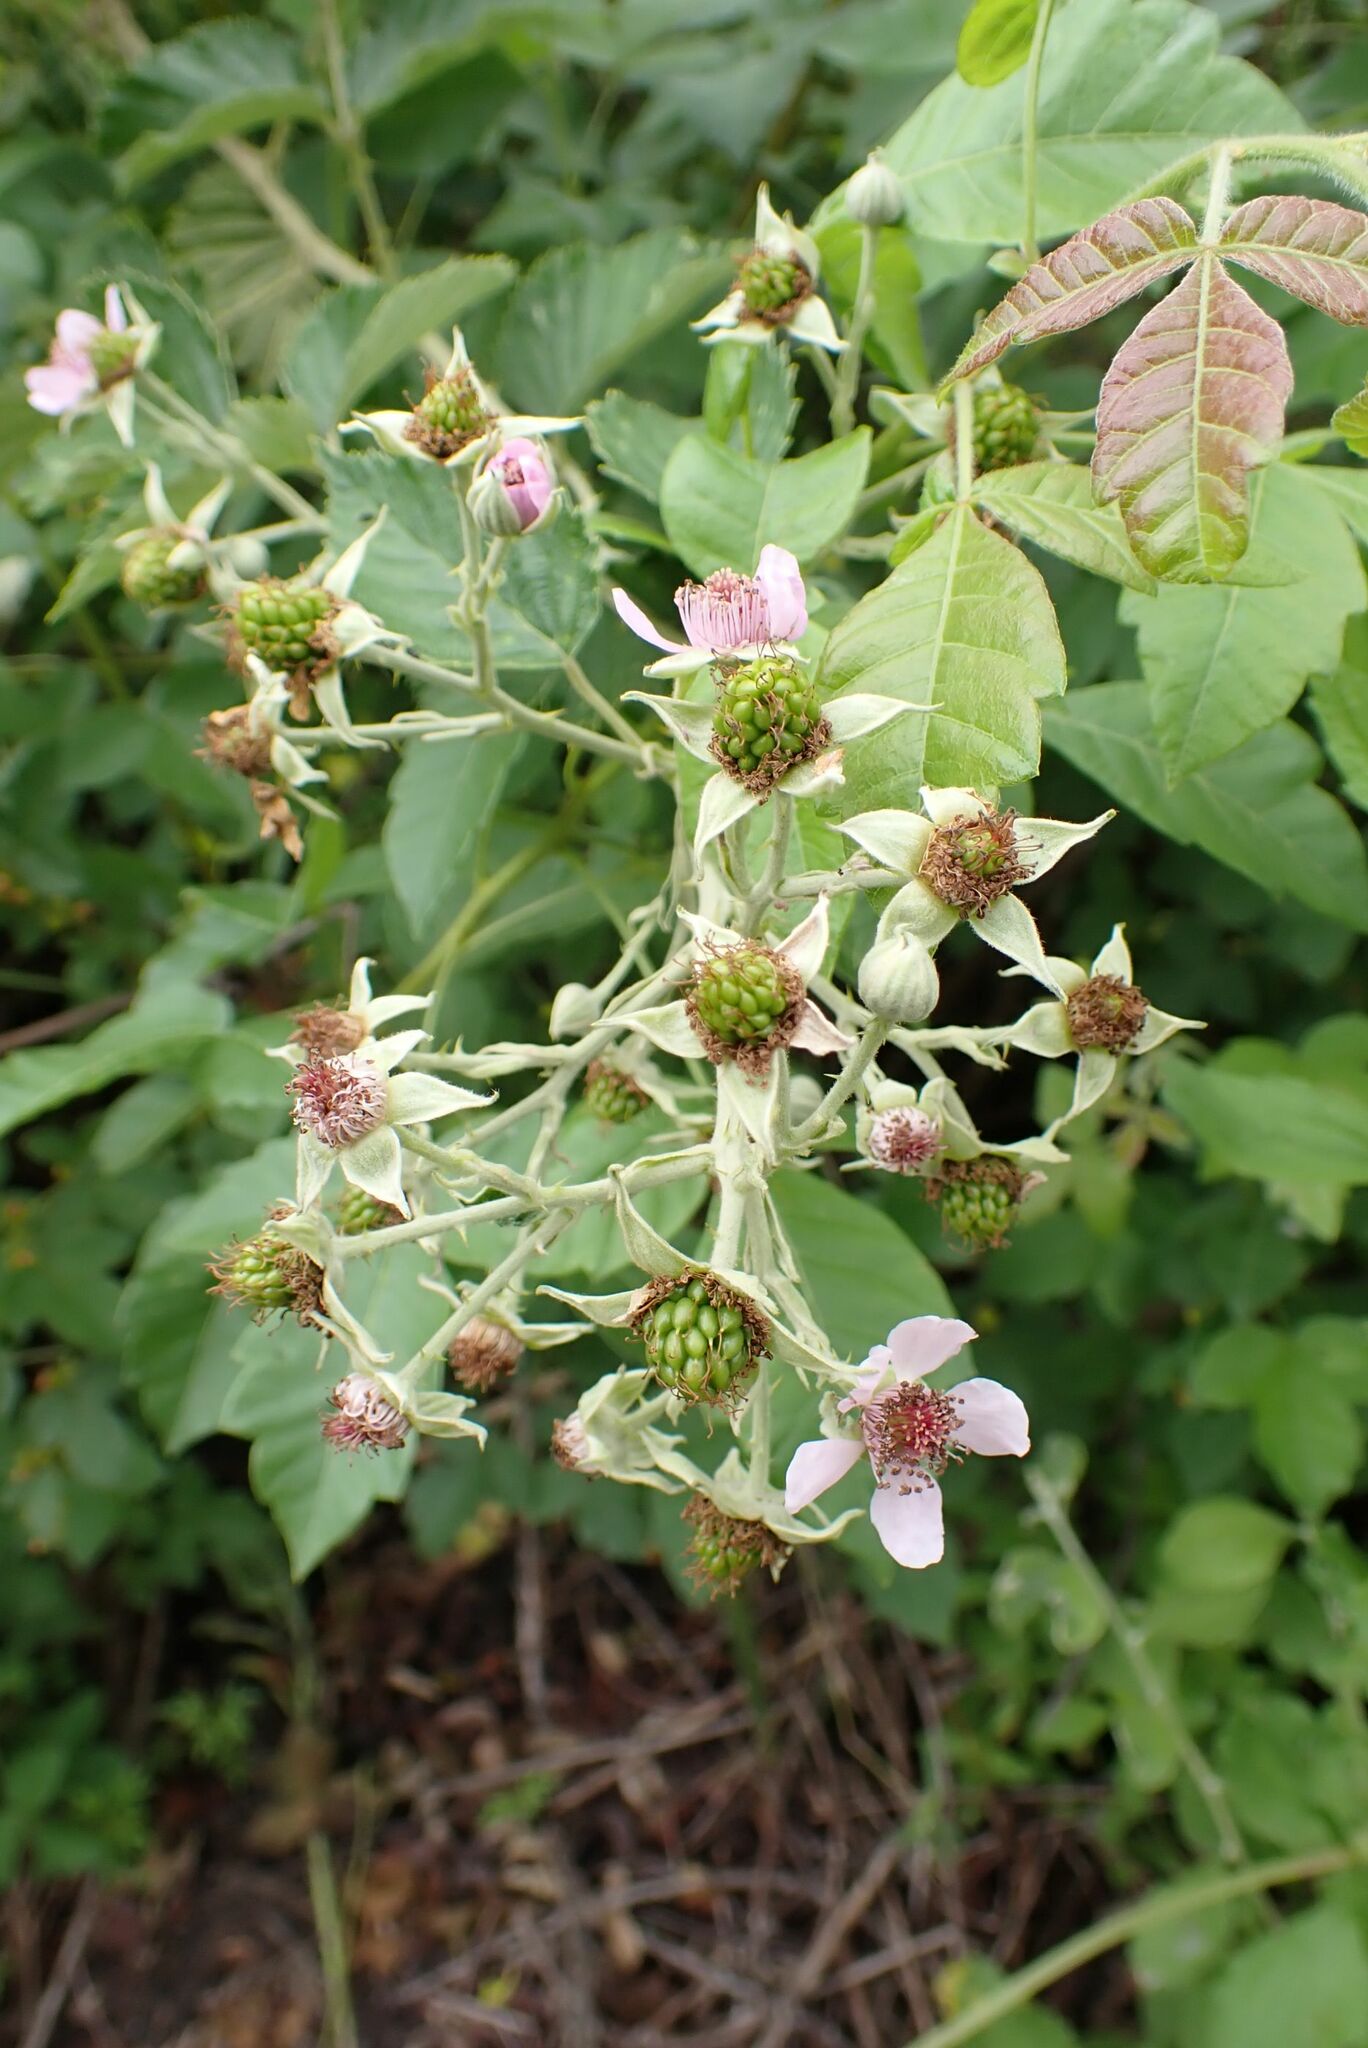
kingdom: Plantae
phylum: Tracheophyta
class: Magnoliopsida
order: Rosales
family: Rosaceae
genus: Rubus
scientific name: Rubus rigidus
